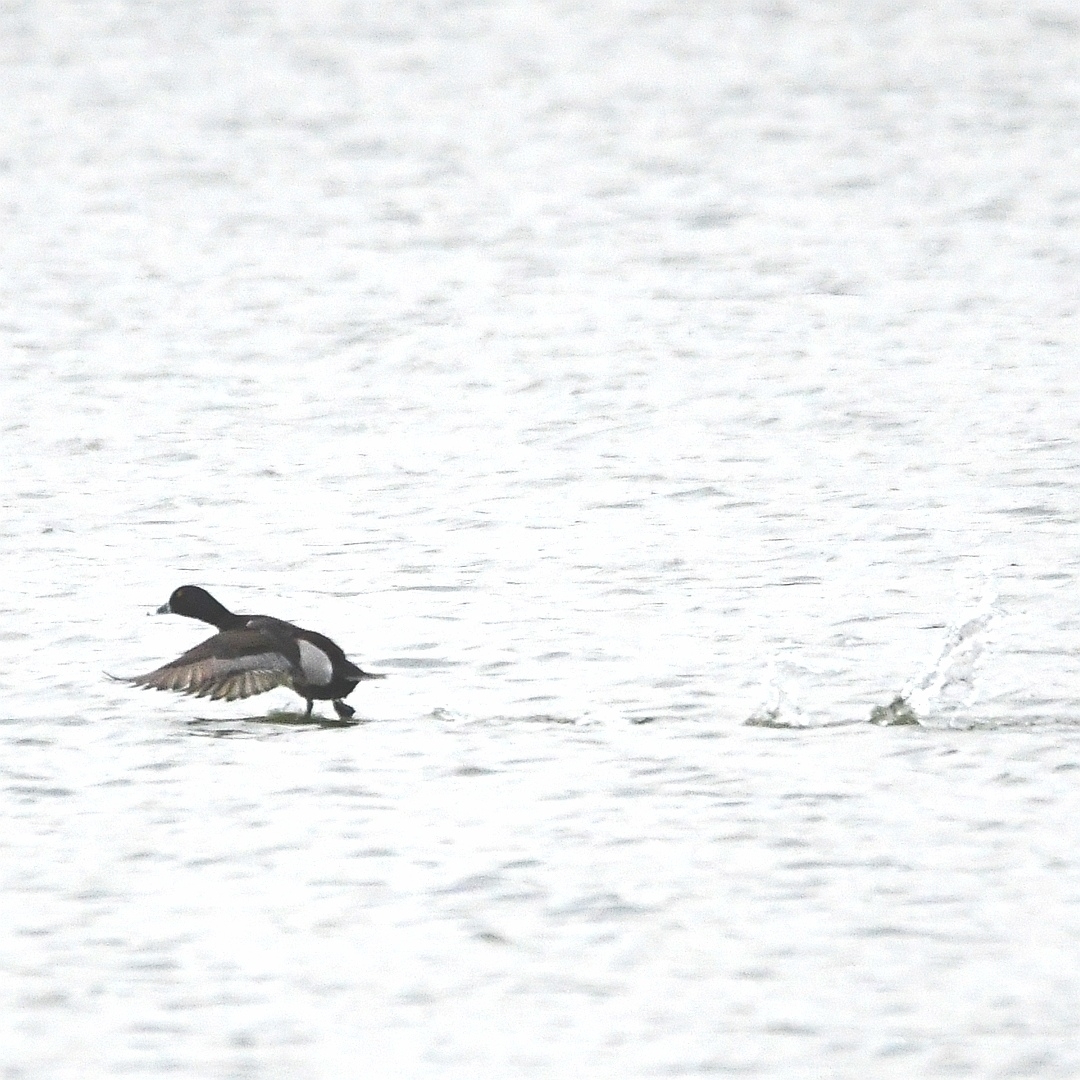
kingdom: Animalia
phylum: Chordata
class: Aves
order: Anseriformes
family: Anatidae
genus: Aythya
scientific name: Aythya collaris
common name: Ring-necked duck
